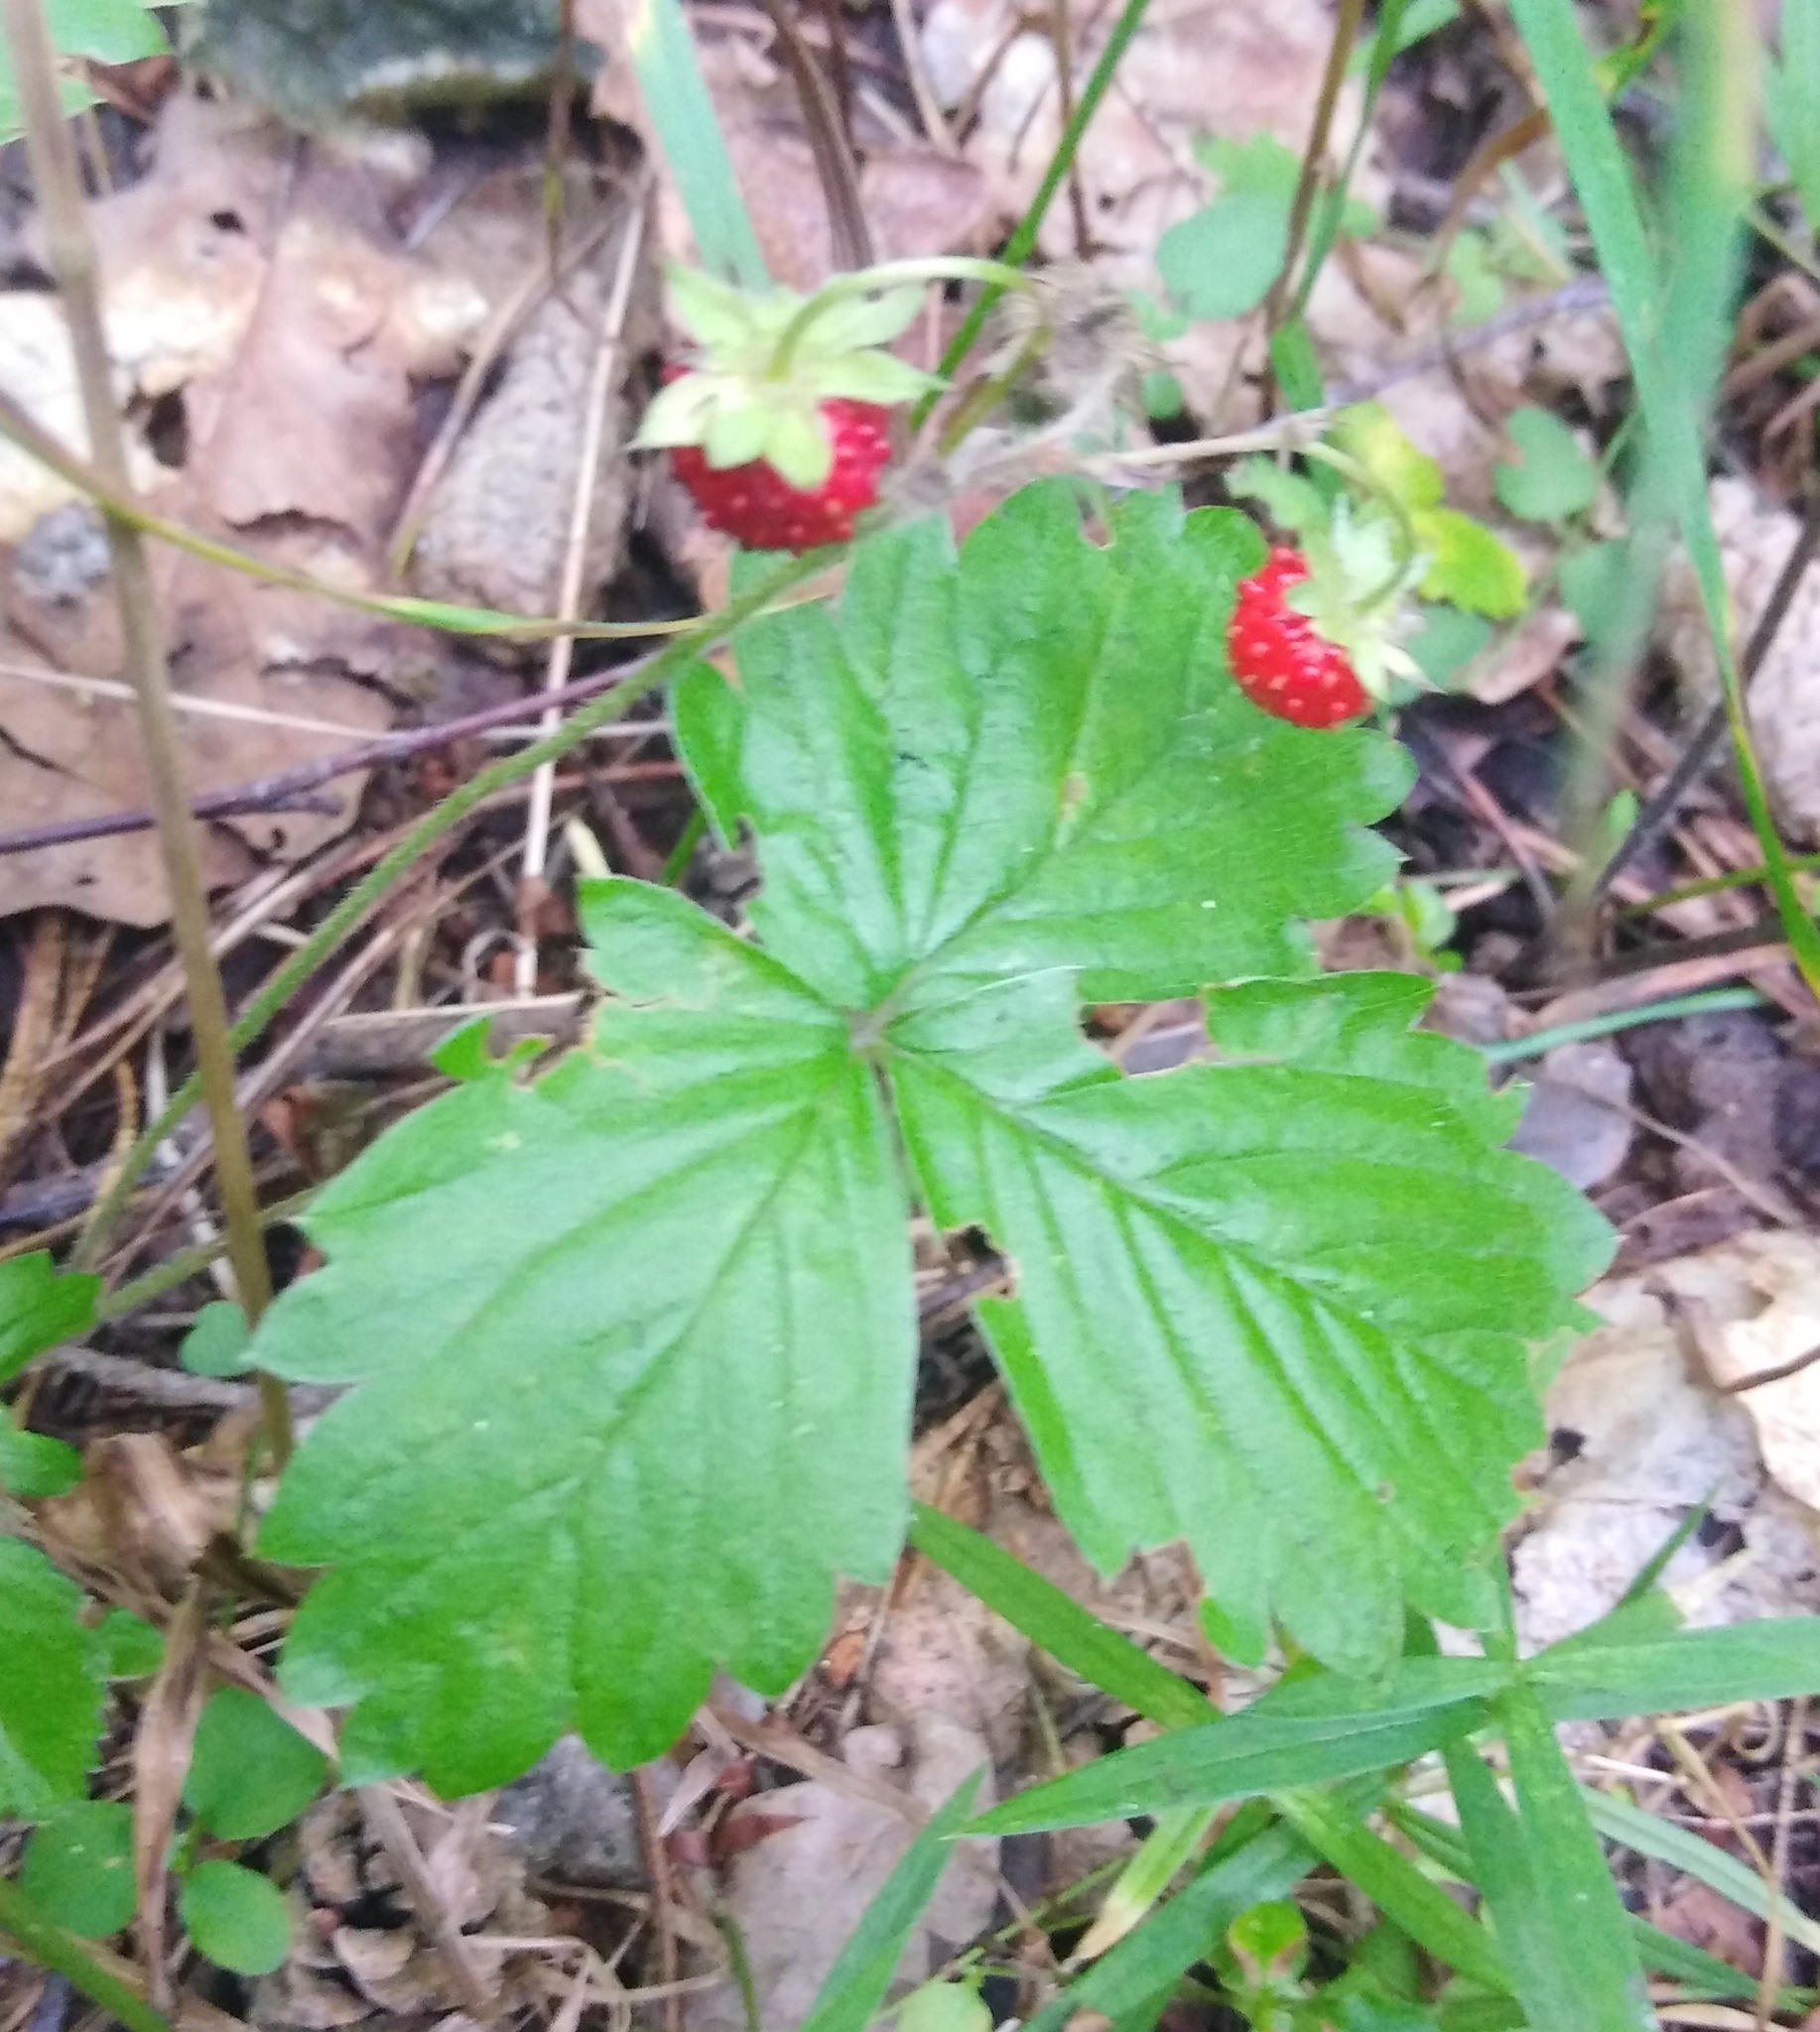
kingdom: Plantae
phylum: Tracheophyta
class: Magnoliopsida
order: Rosales
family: Rosaceae
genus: Fragaria
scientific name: Fragaria vesca
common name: Wild strawberry
